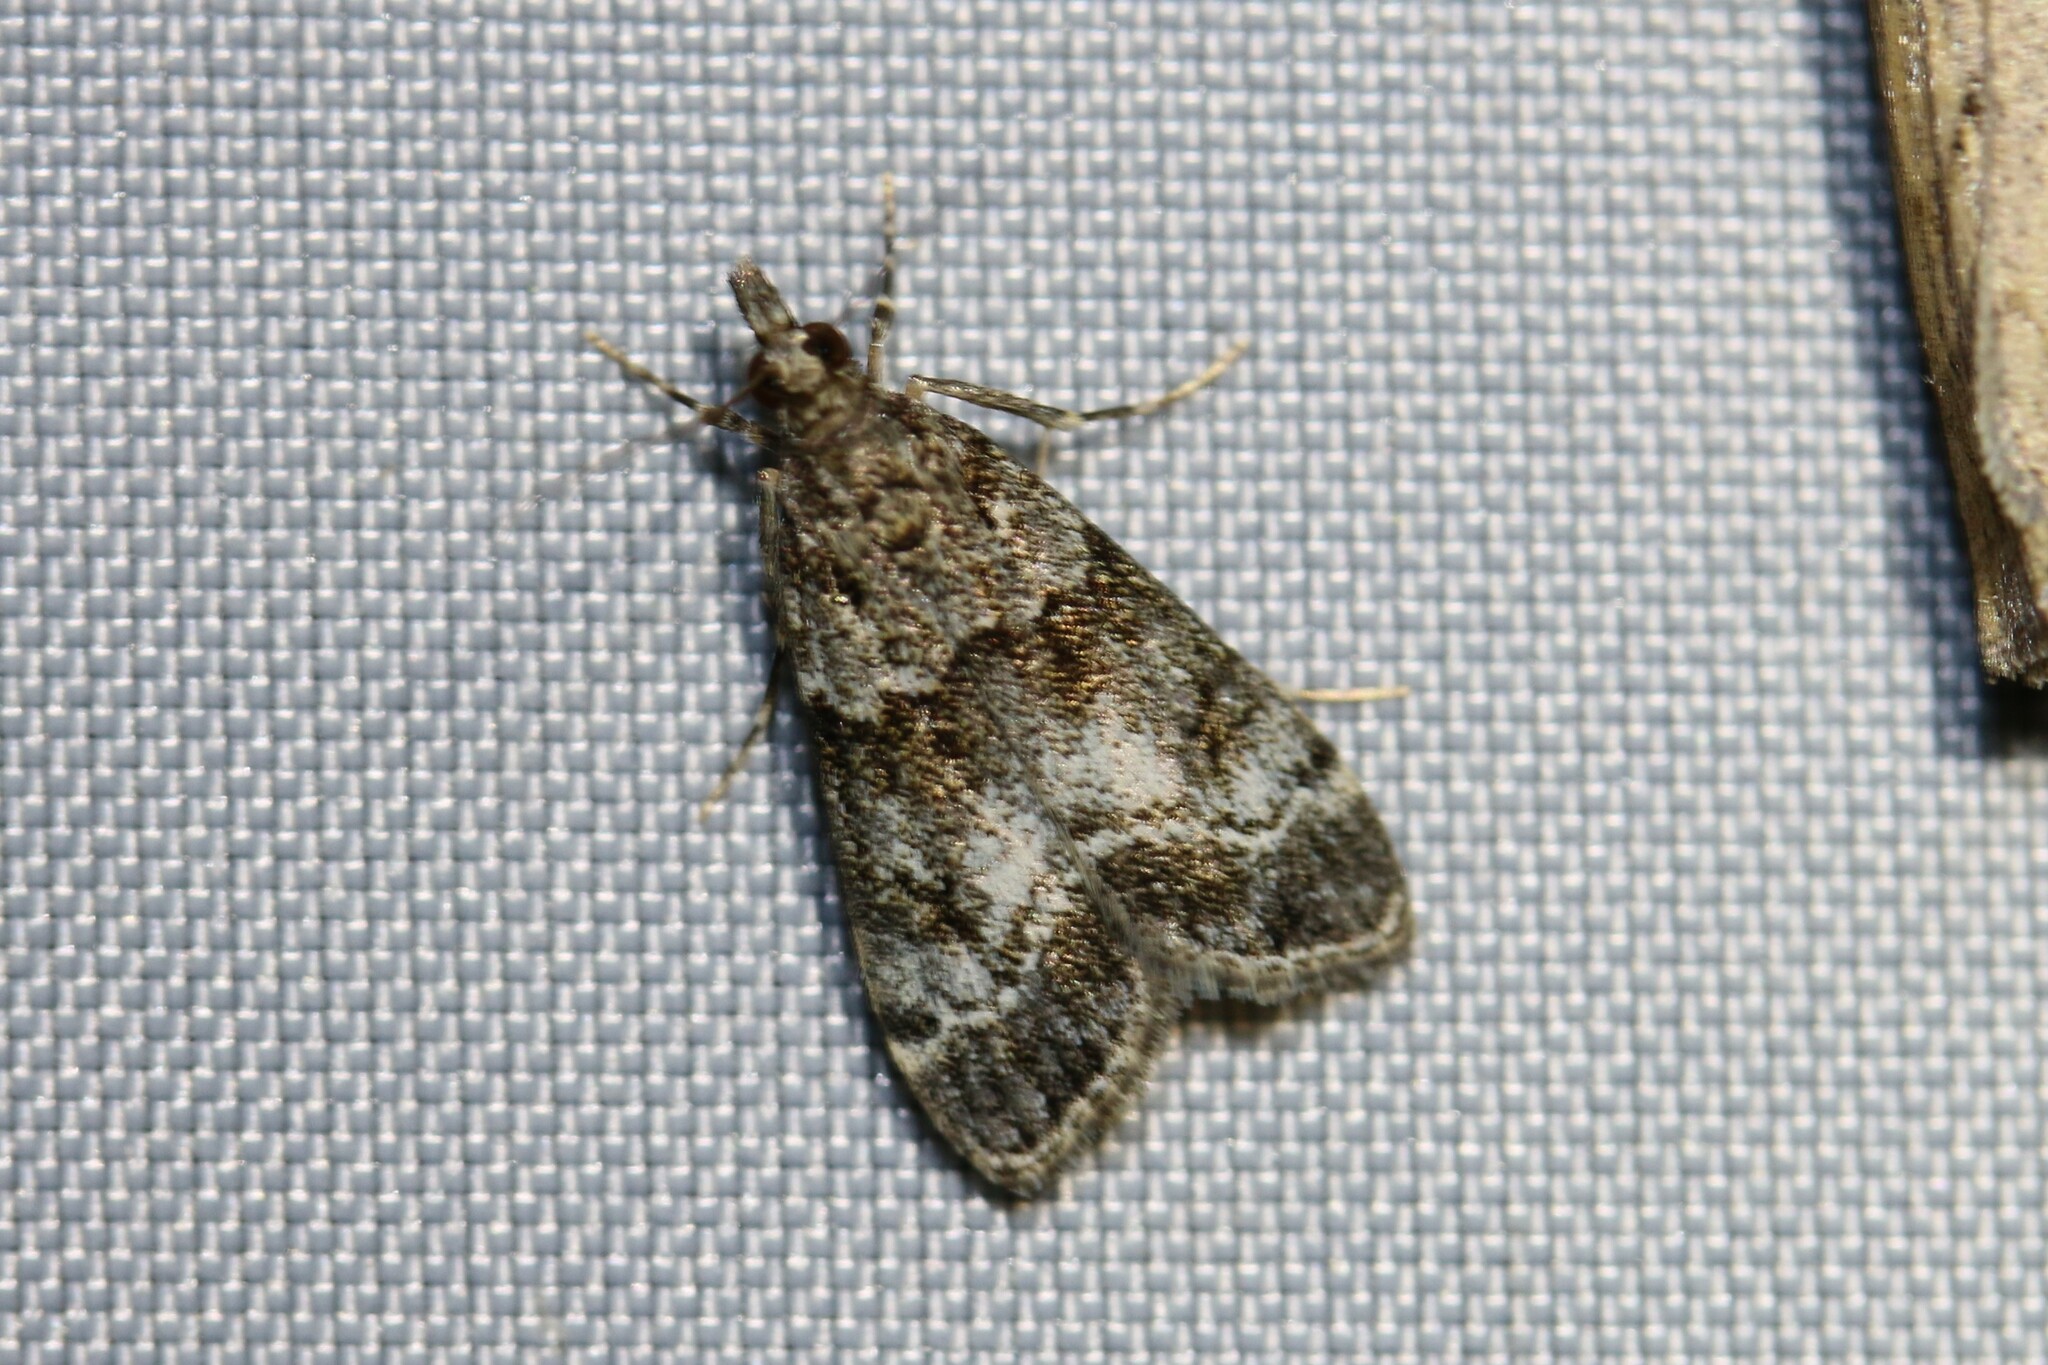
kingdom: Animalia
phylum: Arthropoda
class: Insecta
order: Lepidoptera
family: Crambidae
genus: Eudonia
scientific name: Eudonia mercurella
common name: Small grey
